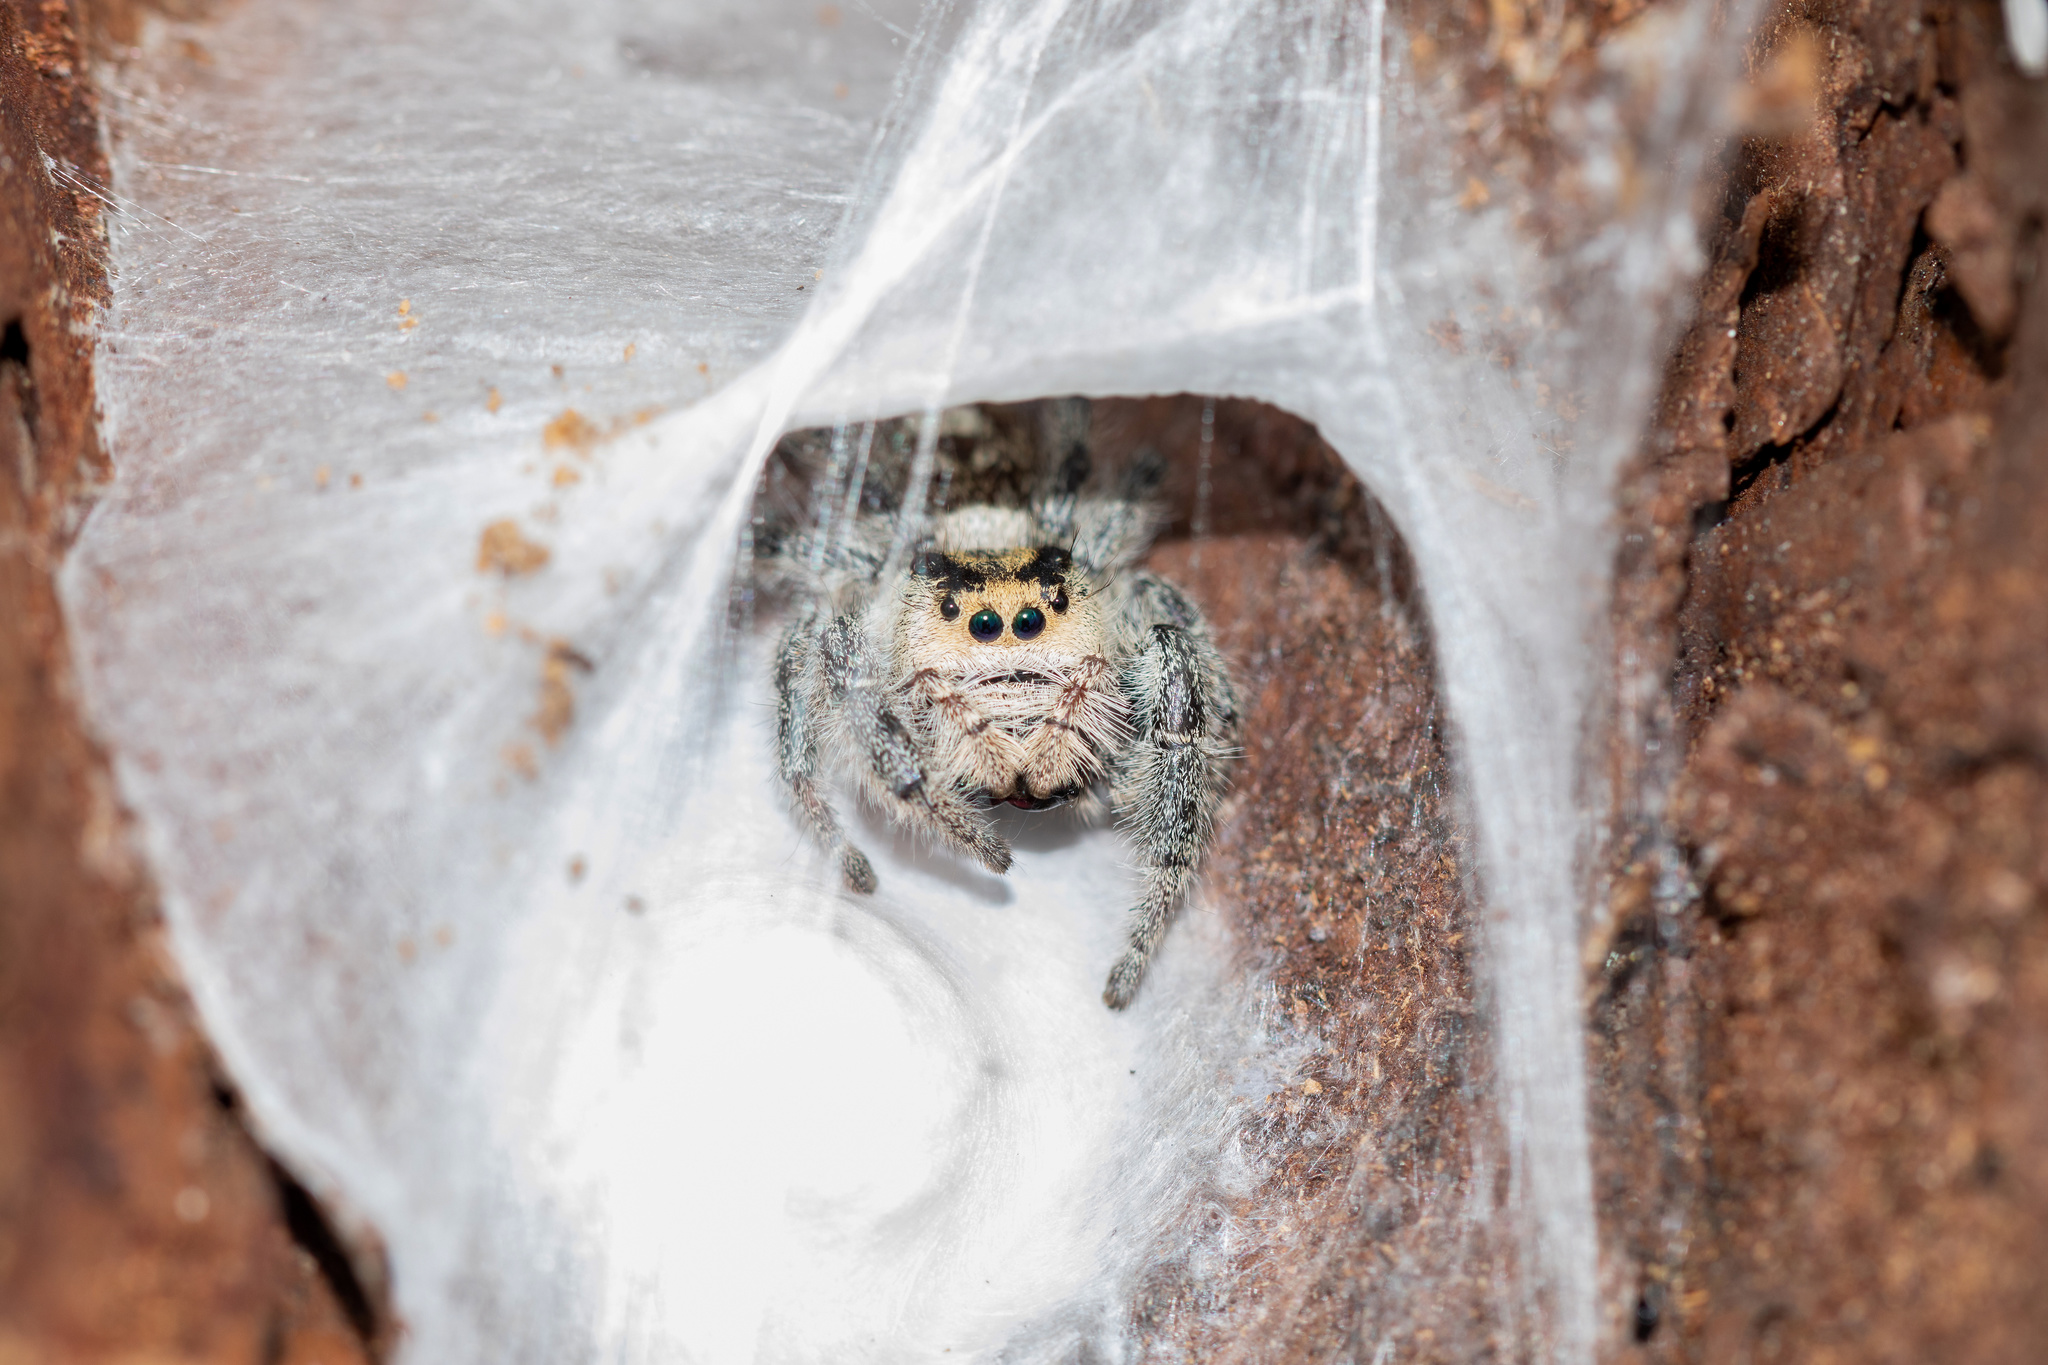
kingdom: Animalia
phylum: Arthropoda
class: Arachnida
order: Araneae
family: Salticidae
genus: Phidippus
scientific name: Phidippus regius
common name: Regal jumper
